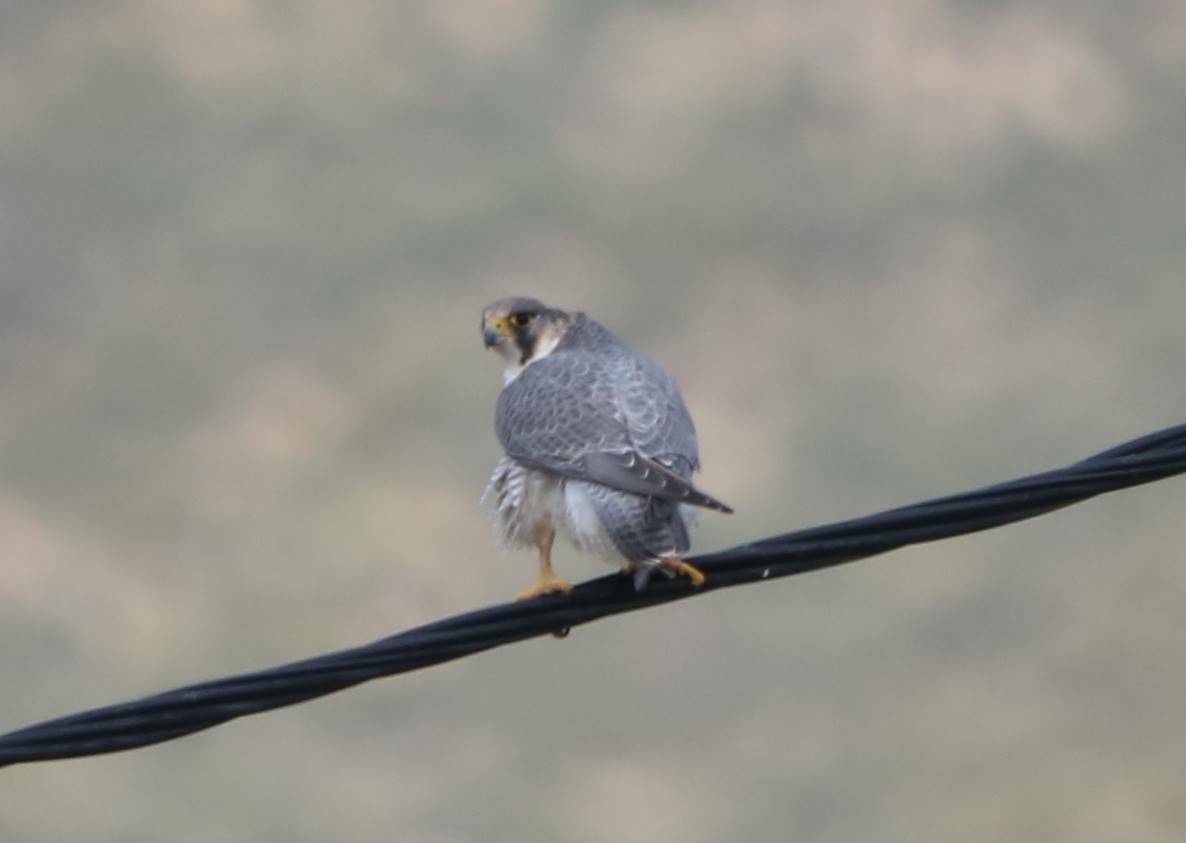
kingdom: Animalia
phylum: Chordata
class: Aves
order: Falconiformes
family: Falconidae
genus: Falco
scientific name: Falco peregrinus
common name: Peregrine falcon
